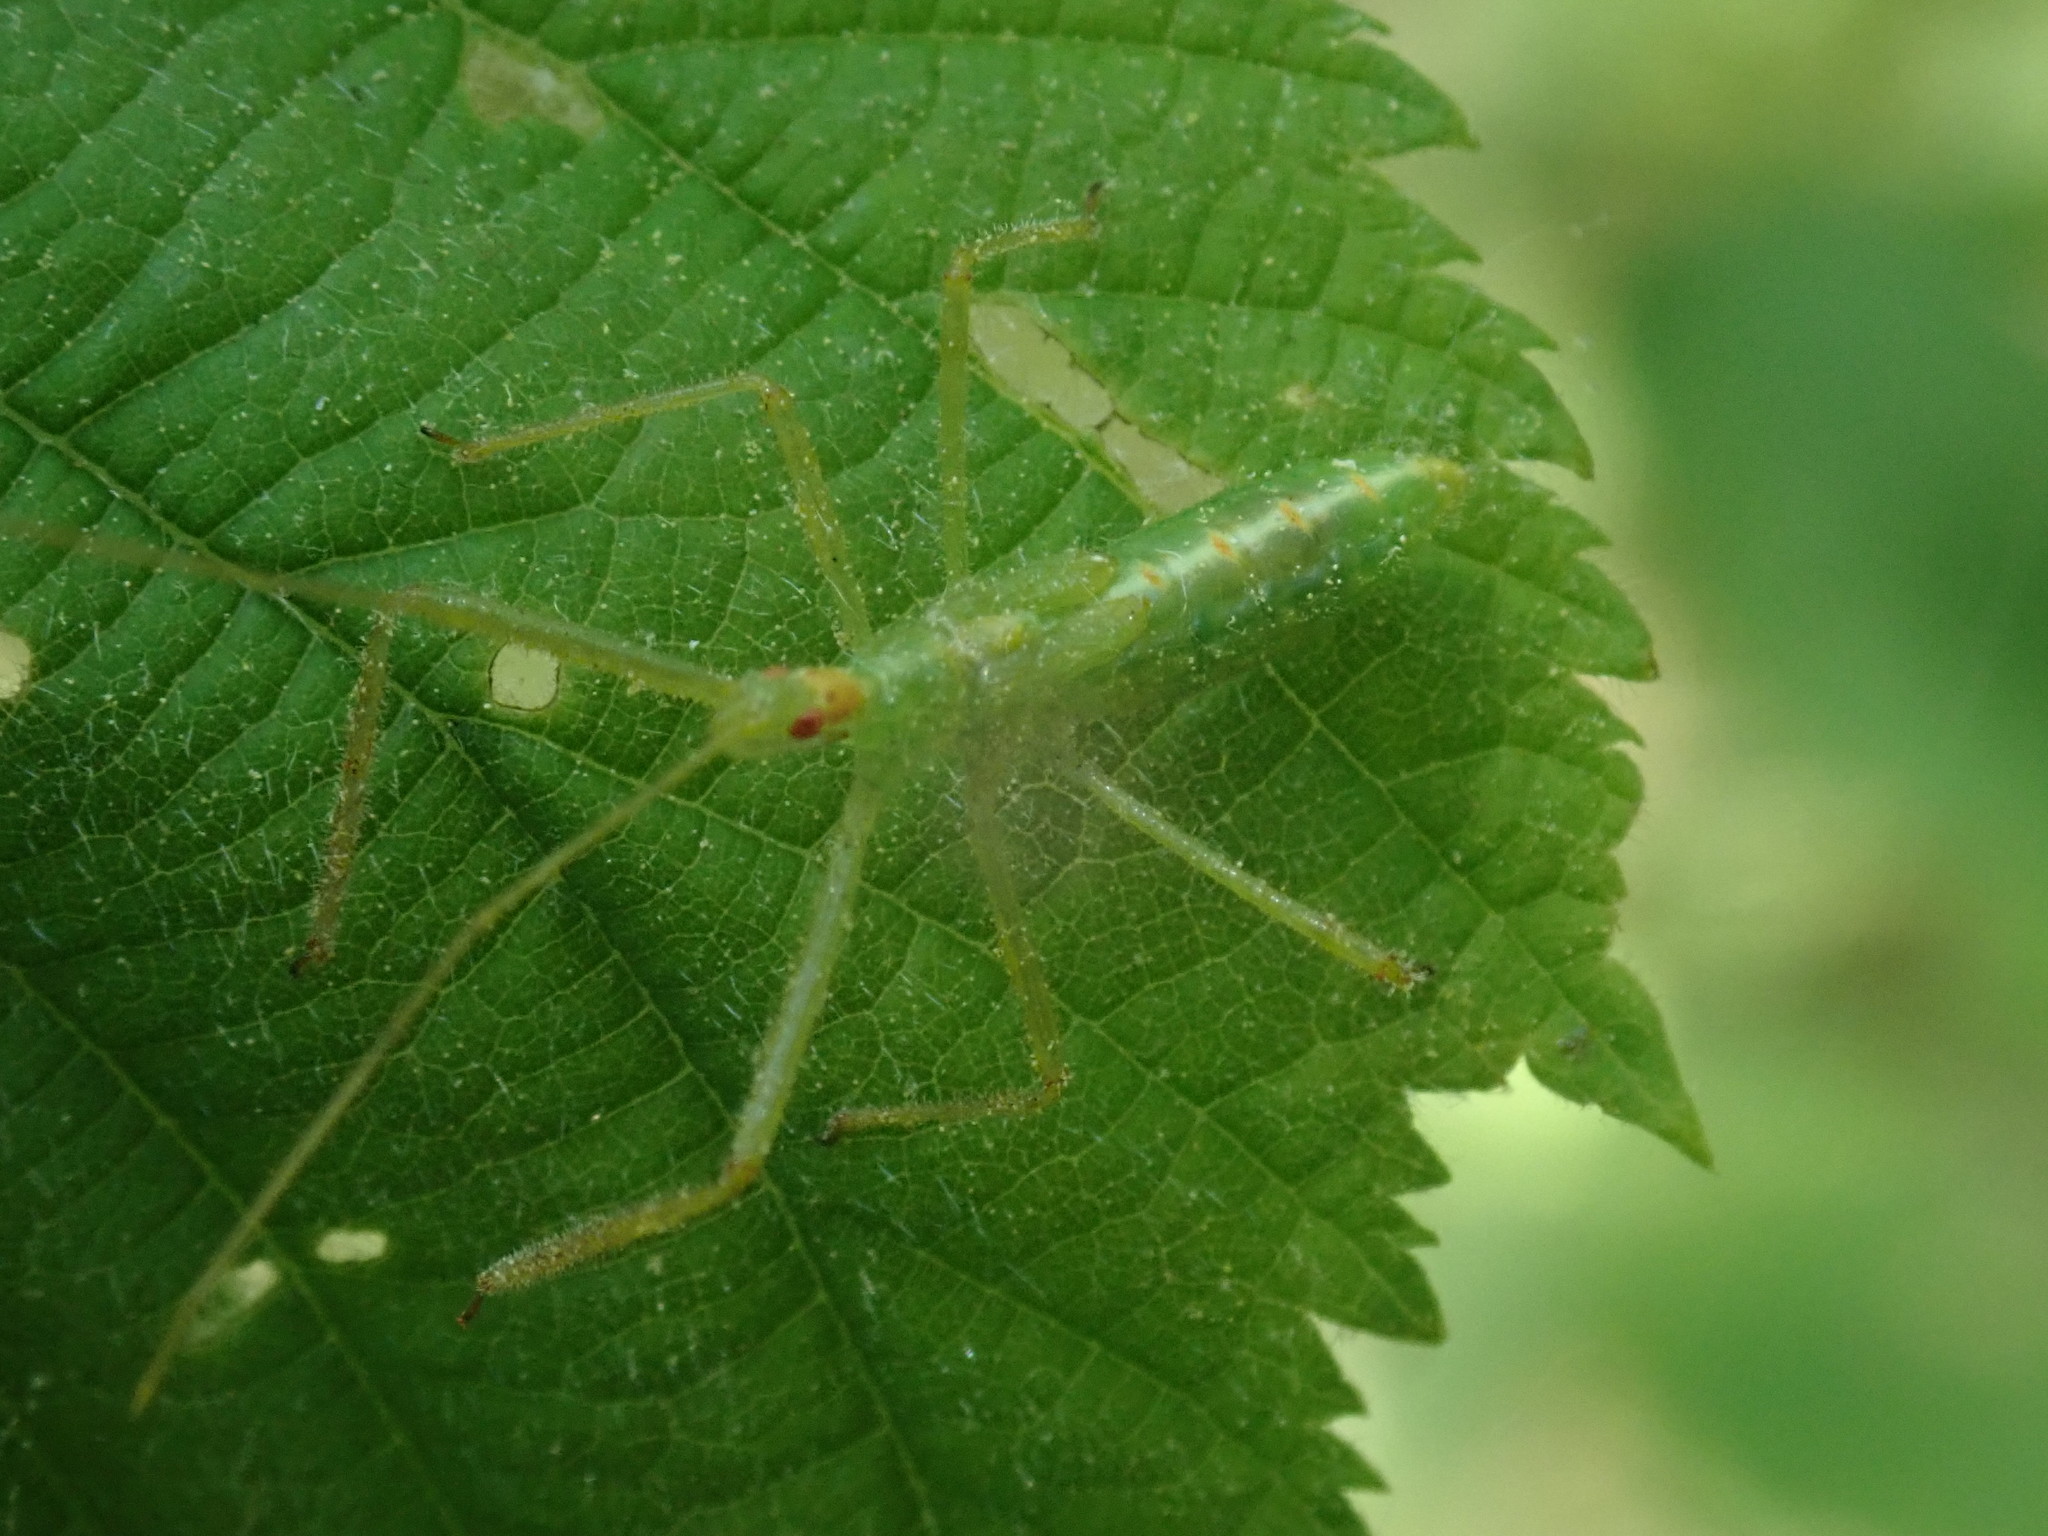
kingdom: Animalia
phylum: Arthropoda
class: Insecta
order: Hemiptera
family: Reduviidae
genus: Zelus
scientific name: Zelus luridus
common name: Pale green assassin bug
